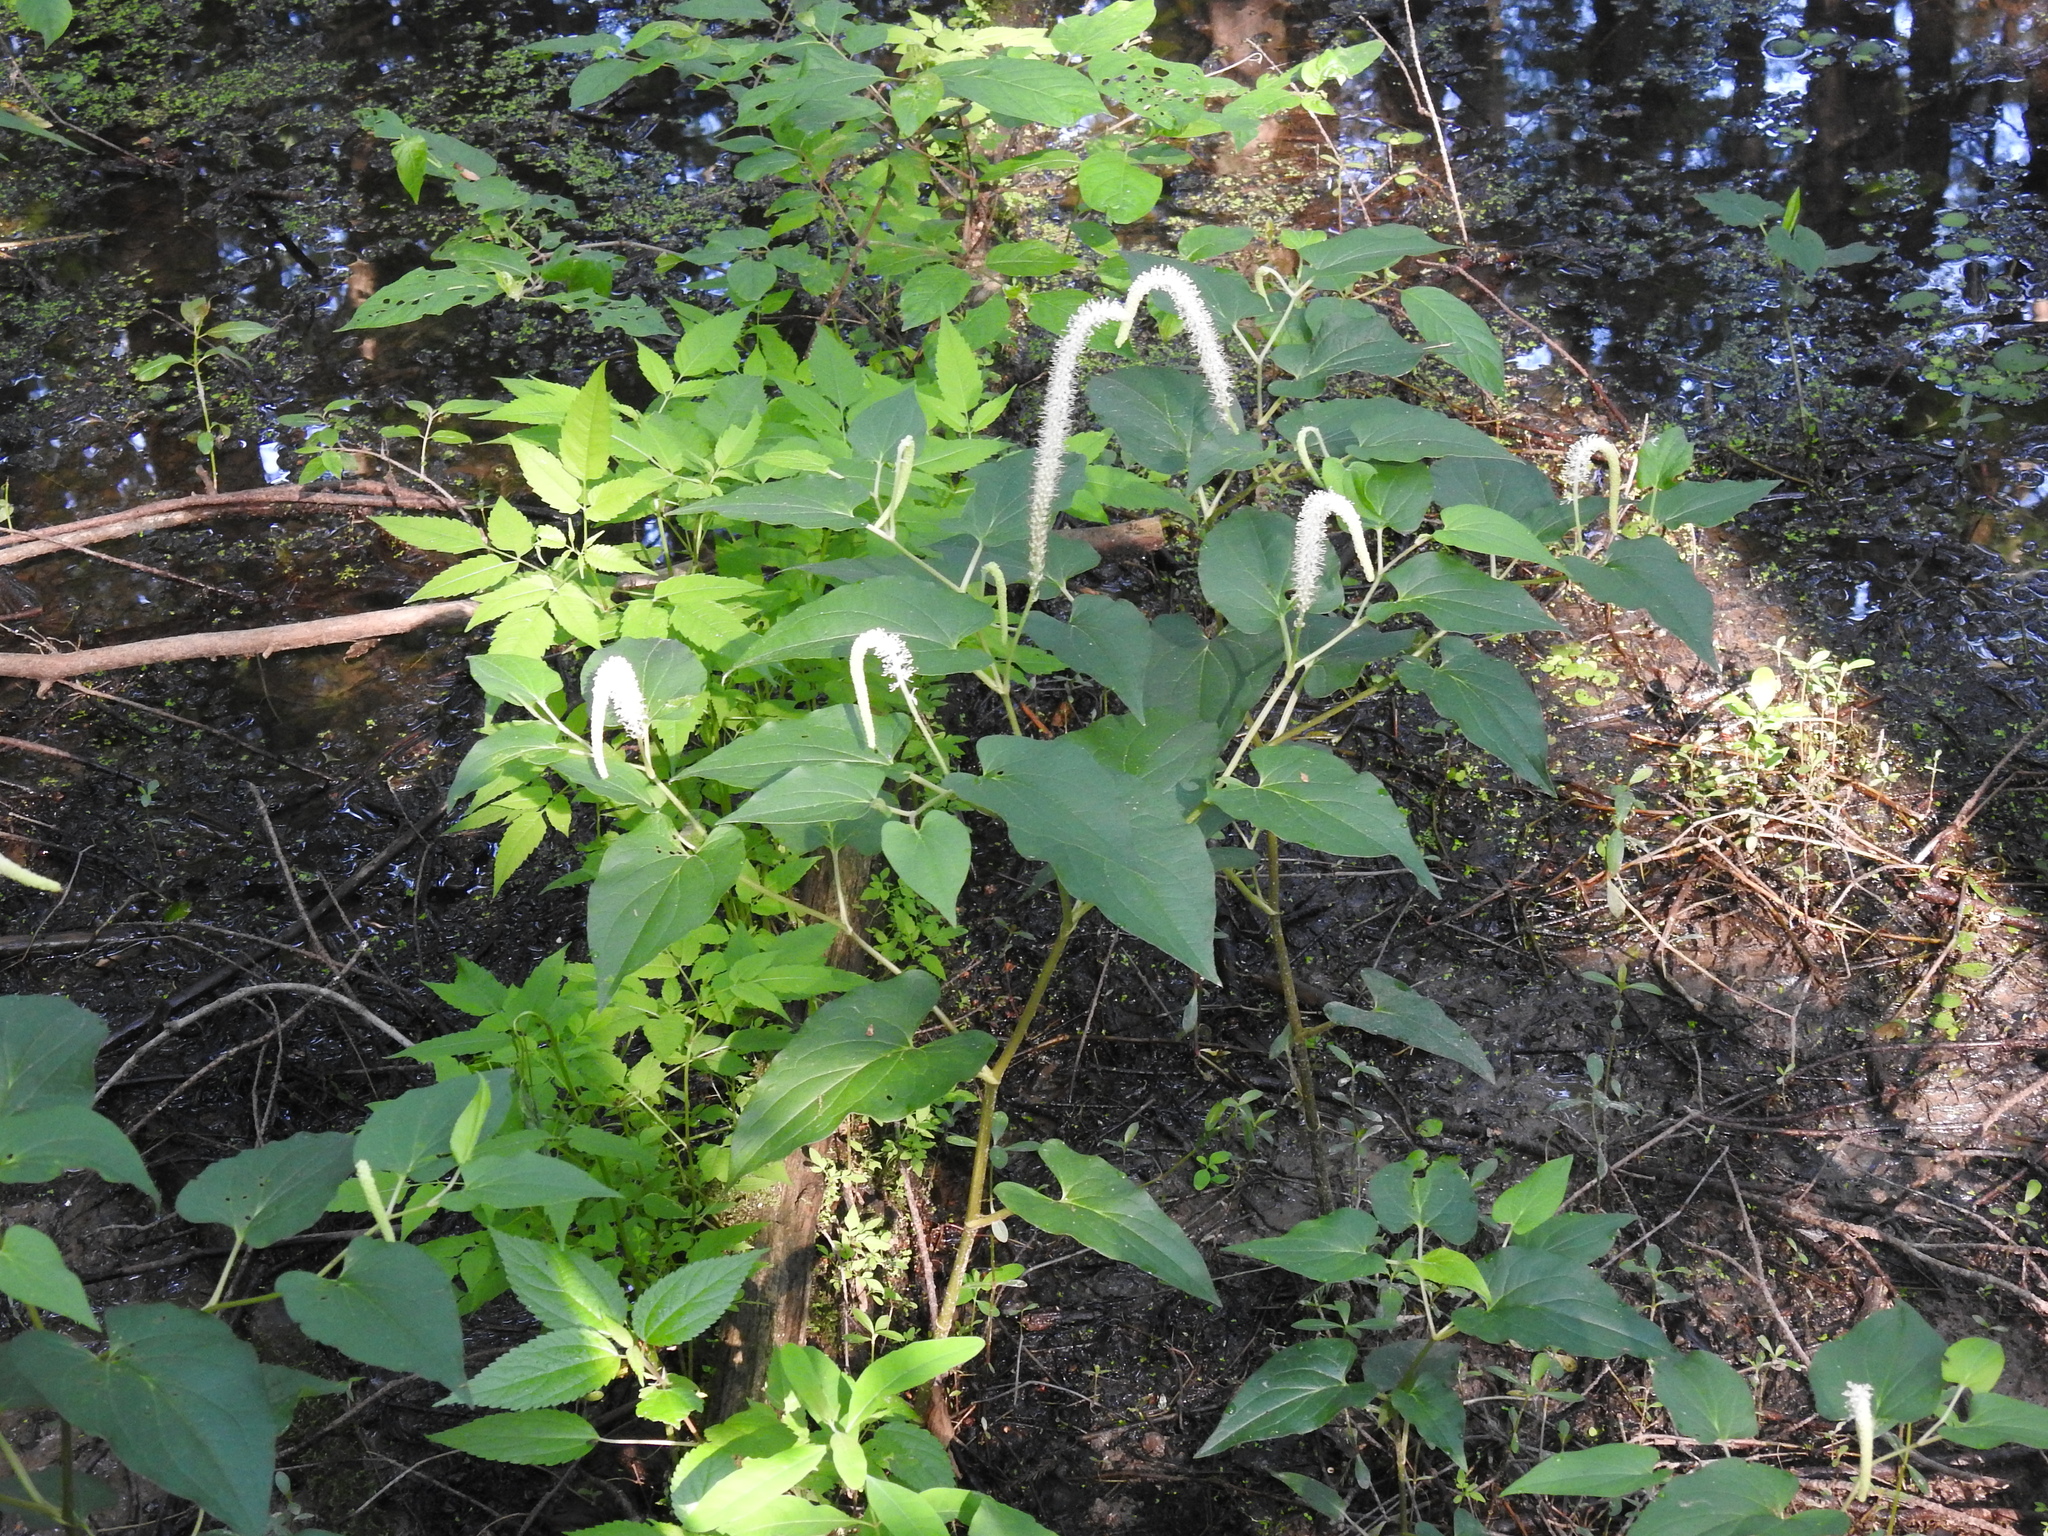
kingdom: Plantae
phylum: Tracheophyta
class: Magnoliopsida
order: Piperales
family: Saururaceae
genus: Saururus
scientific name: Saururus cernuus
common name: Lizard's-tail
